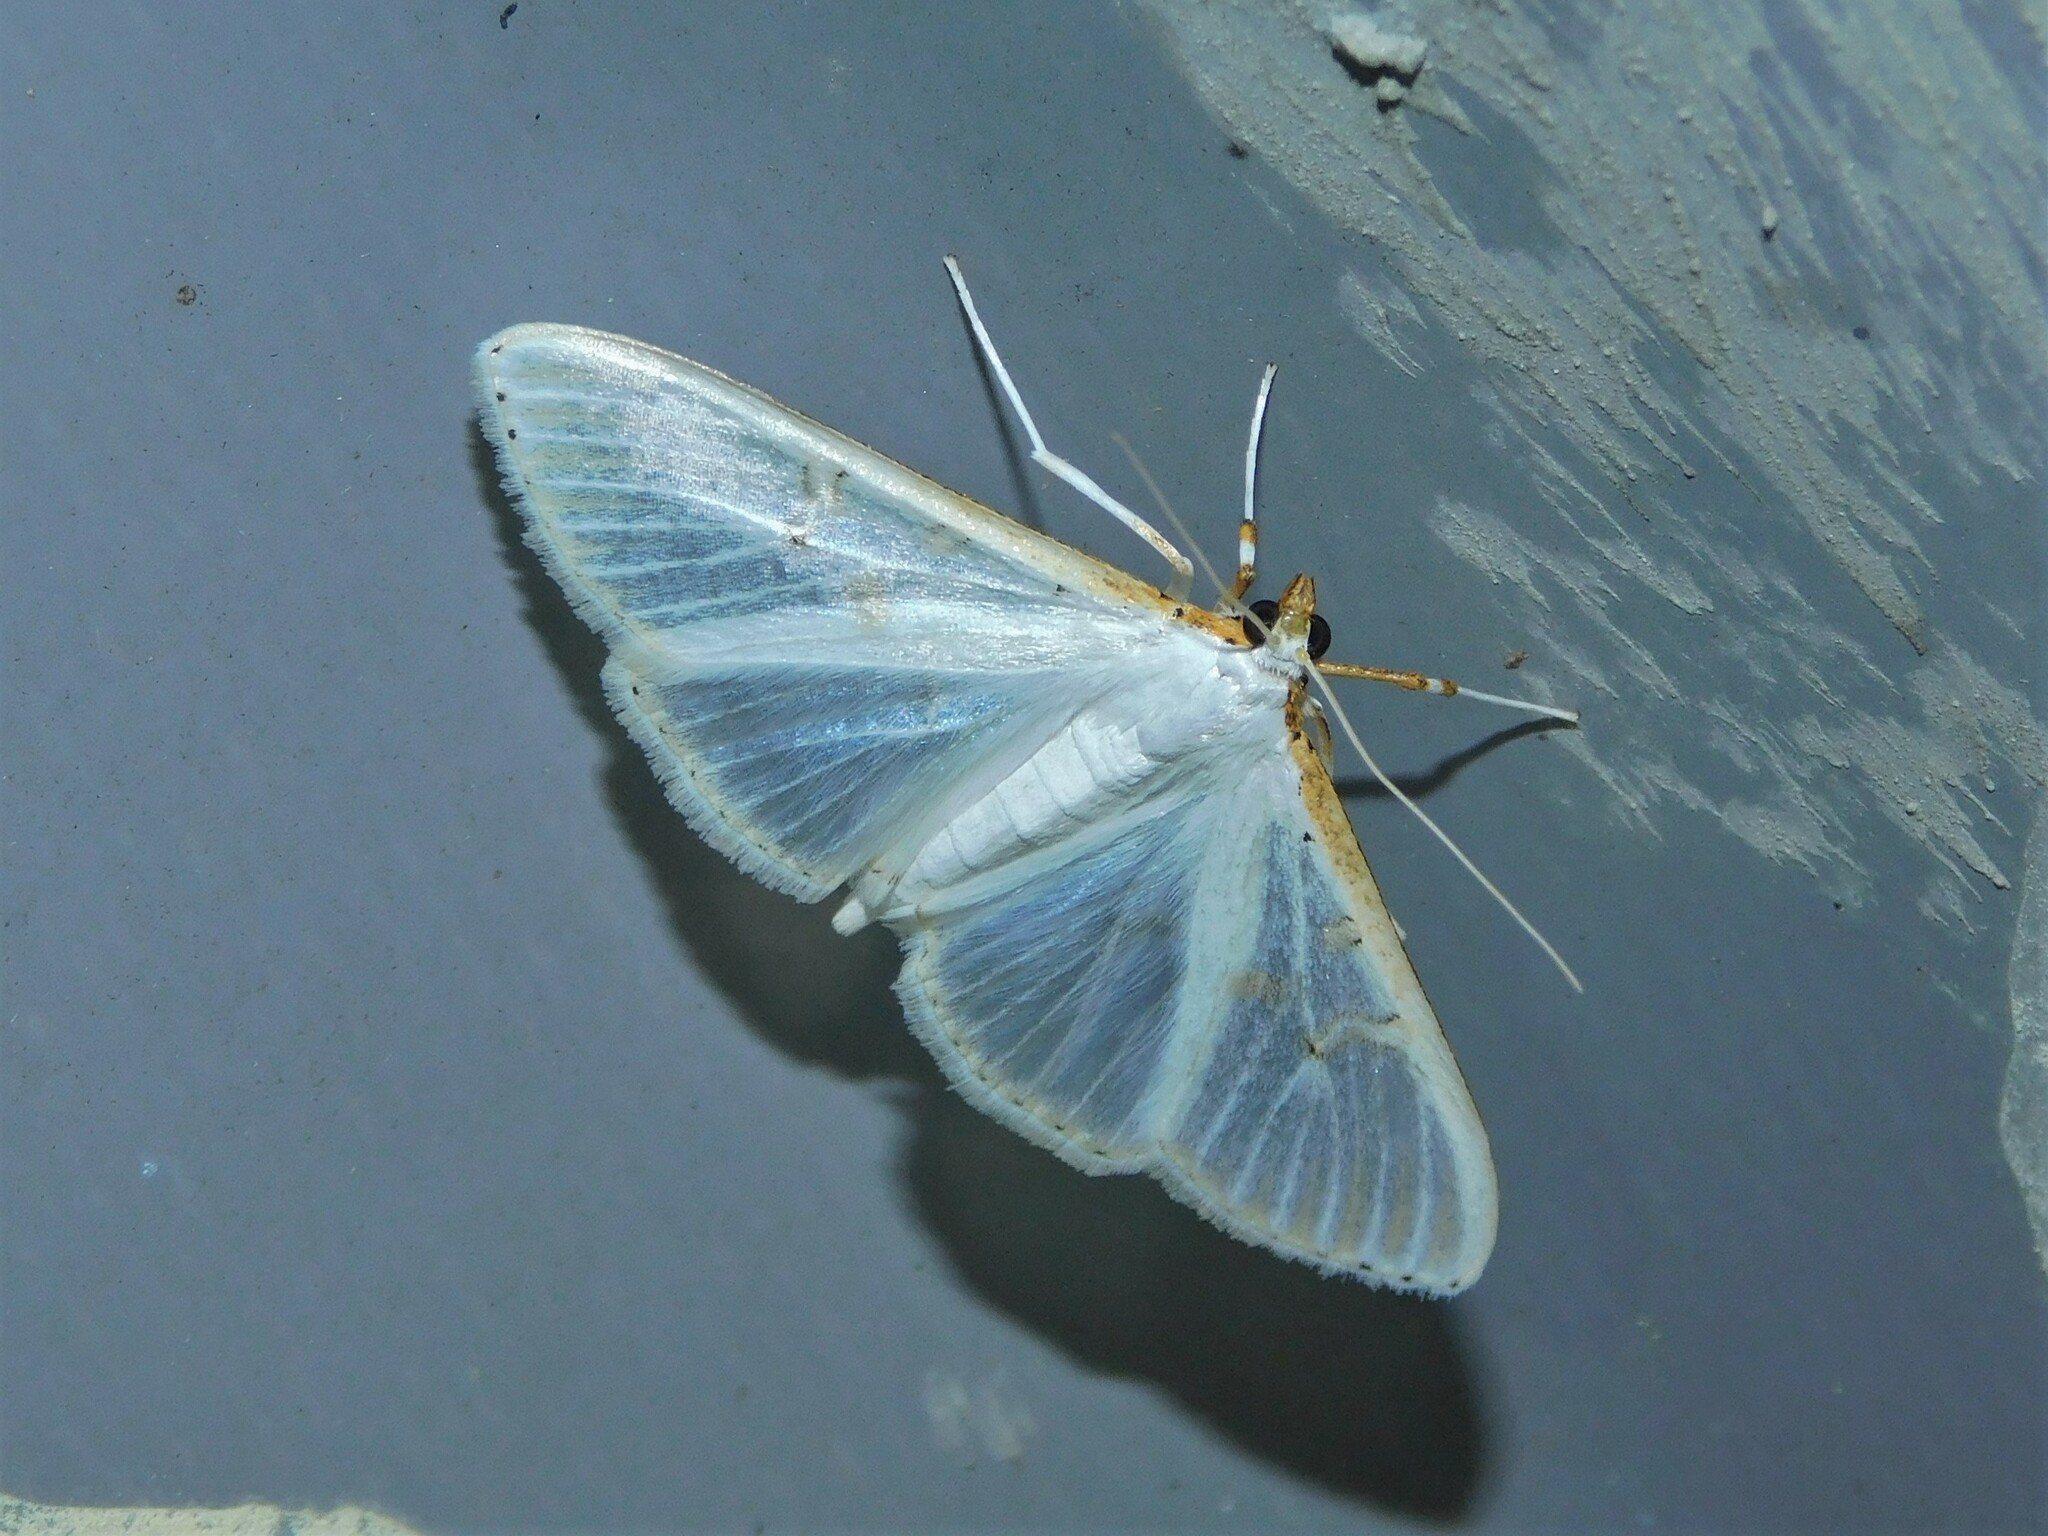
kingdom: Animalia
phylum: Arthropoda
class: Insecta
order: Lepidoptera
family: Crambidae
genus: Palpita
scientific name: Palpita vitrealis
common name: Olive-tree pearl
